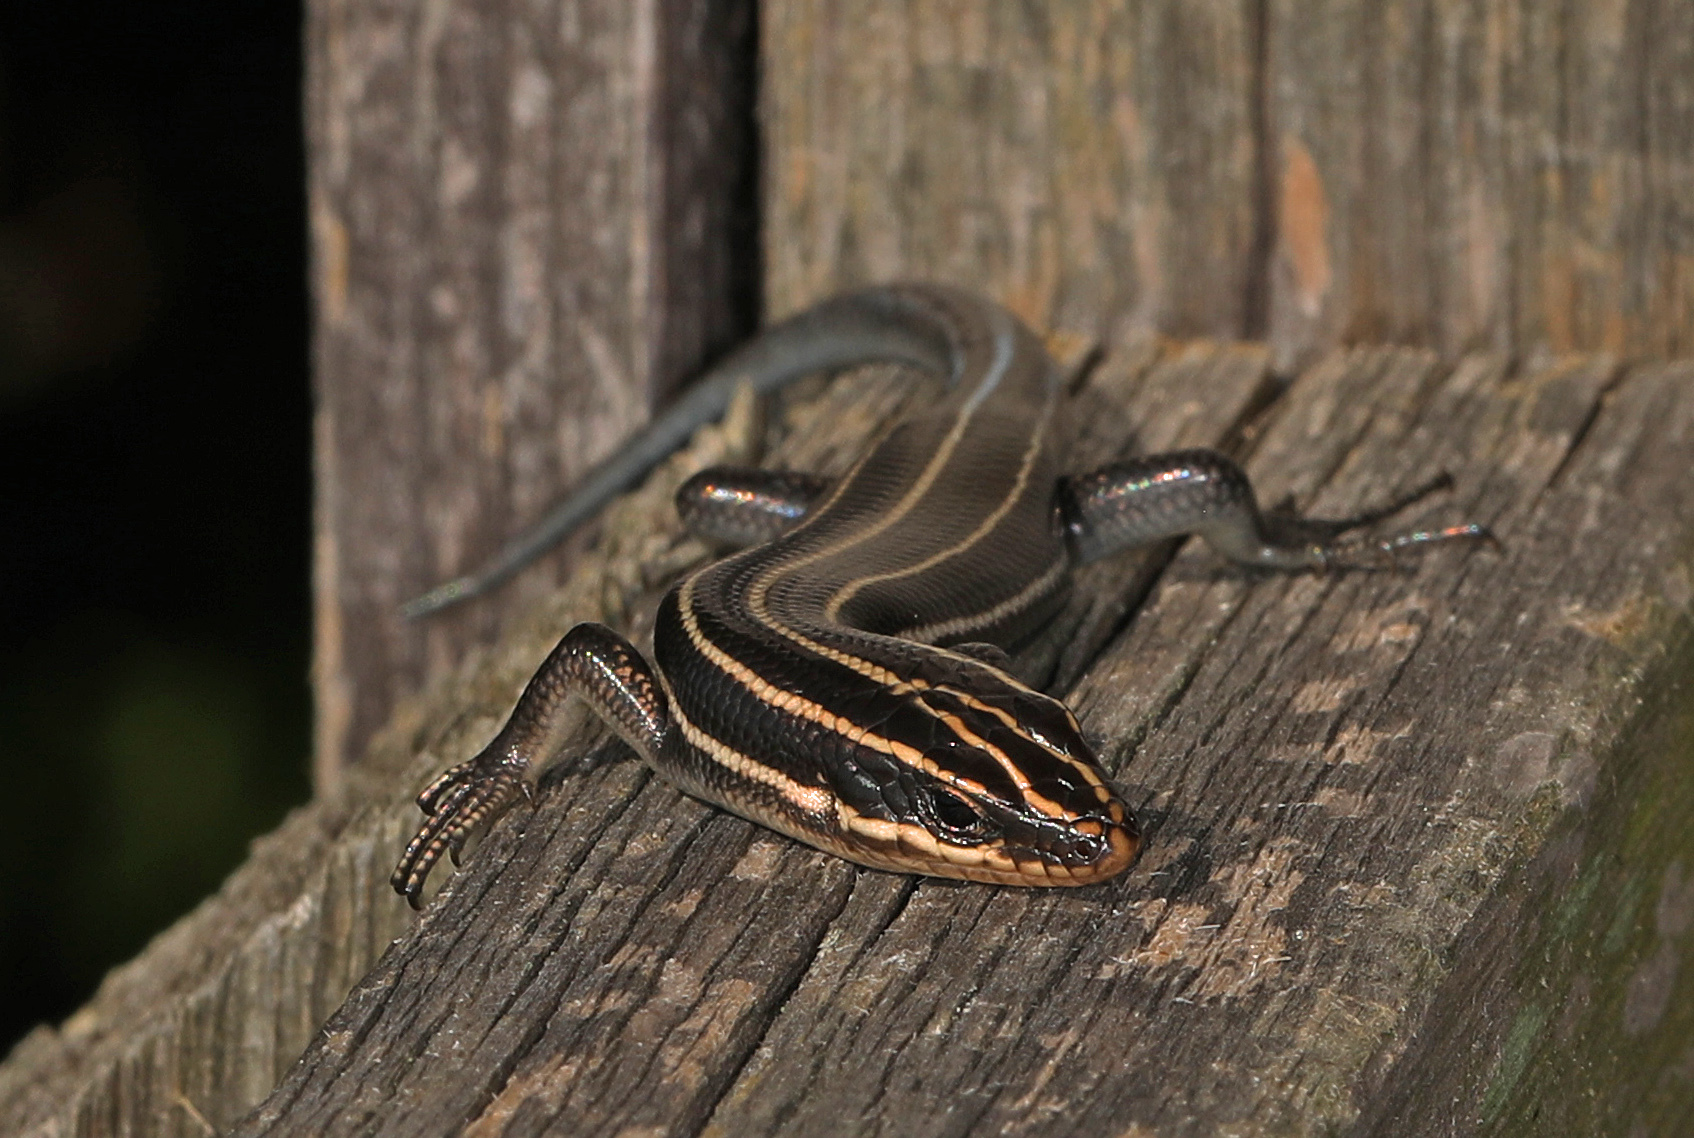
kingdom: Animalia
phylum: Chordata
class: Squamata
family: Scincidae
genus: Plestiodon
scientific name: Plestiodon fasciatus
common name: Five-lined skink
